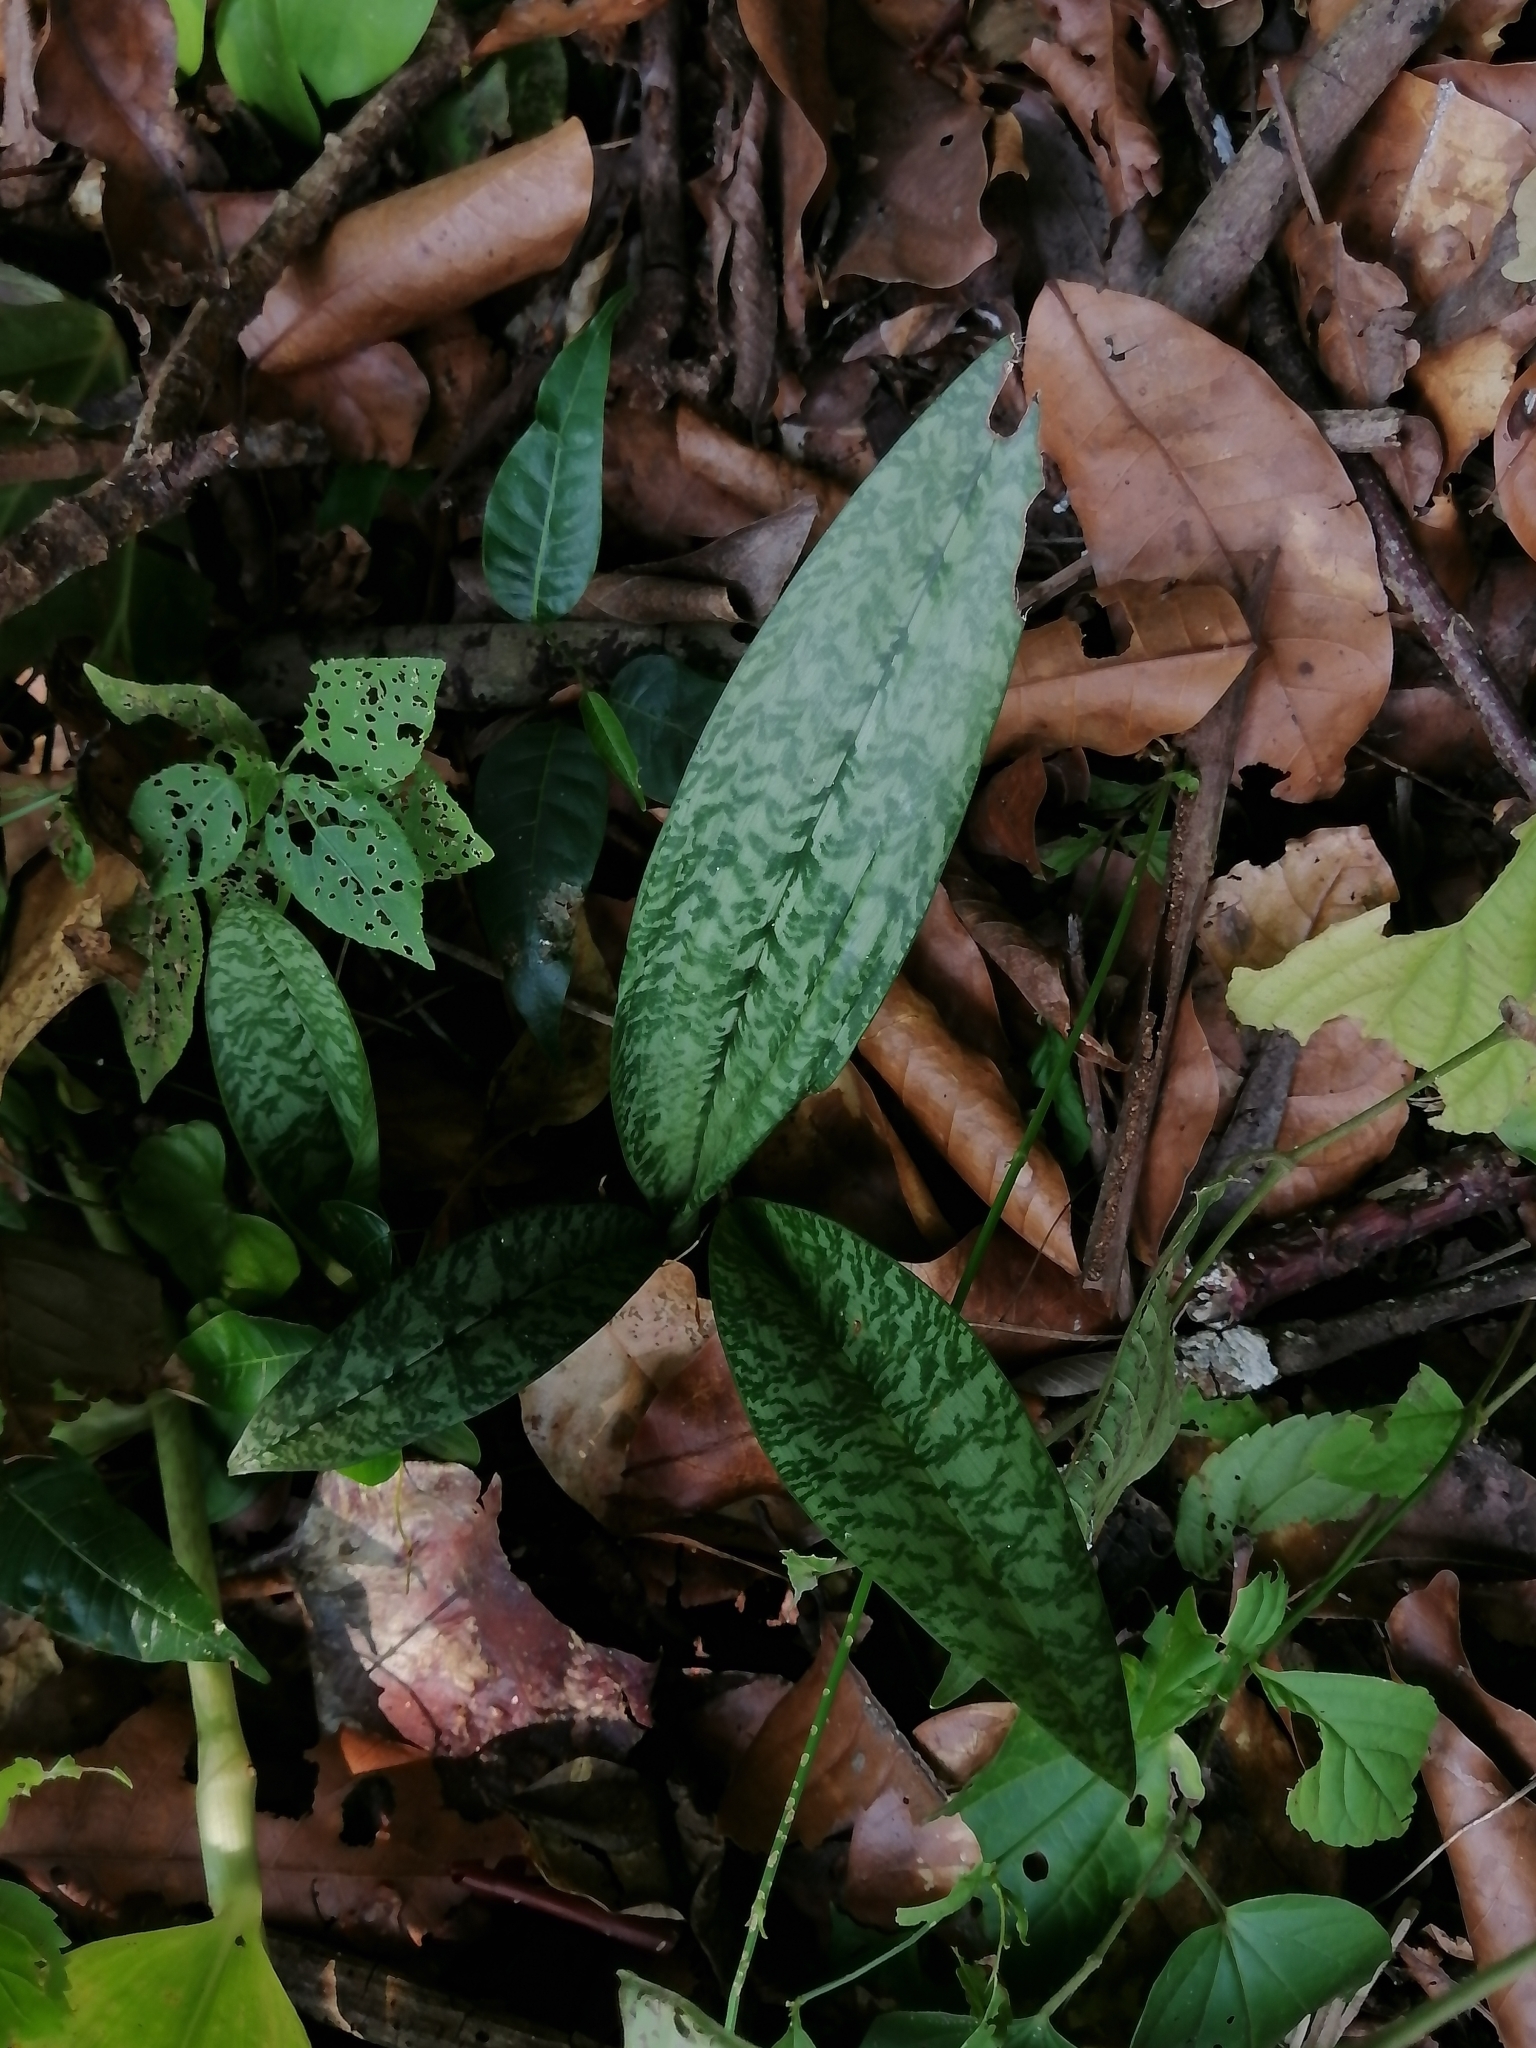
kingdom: Plantae
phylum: Tracheophyta
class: Liliopsida
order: Asparagales
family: Orchidaceae
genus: Eulophia
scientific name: Eulophia maculata
